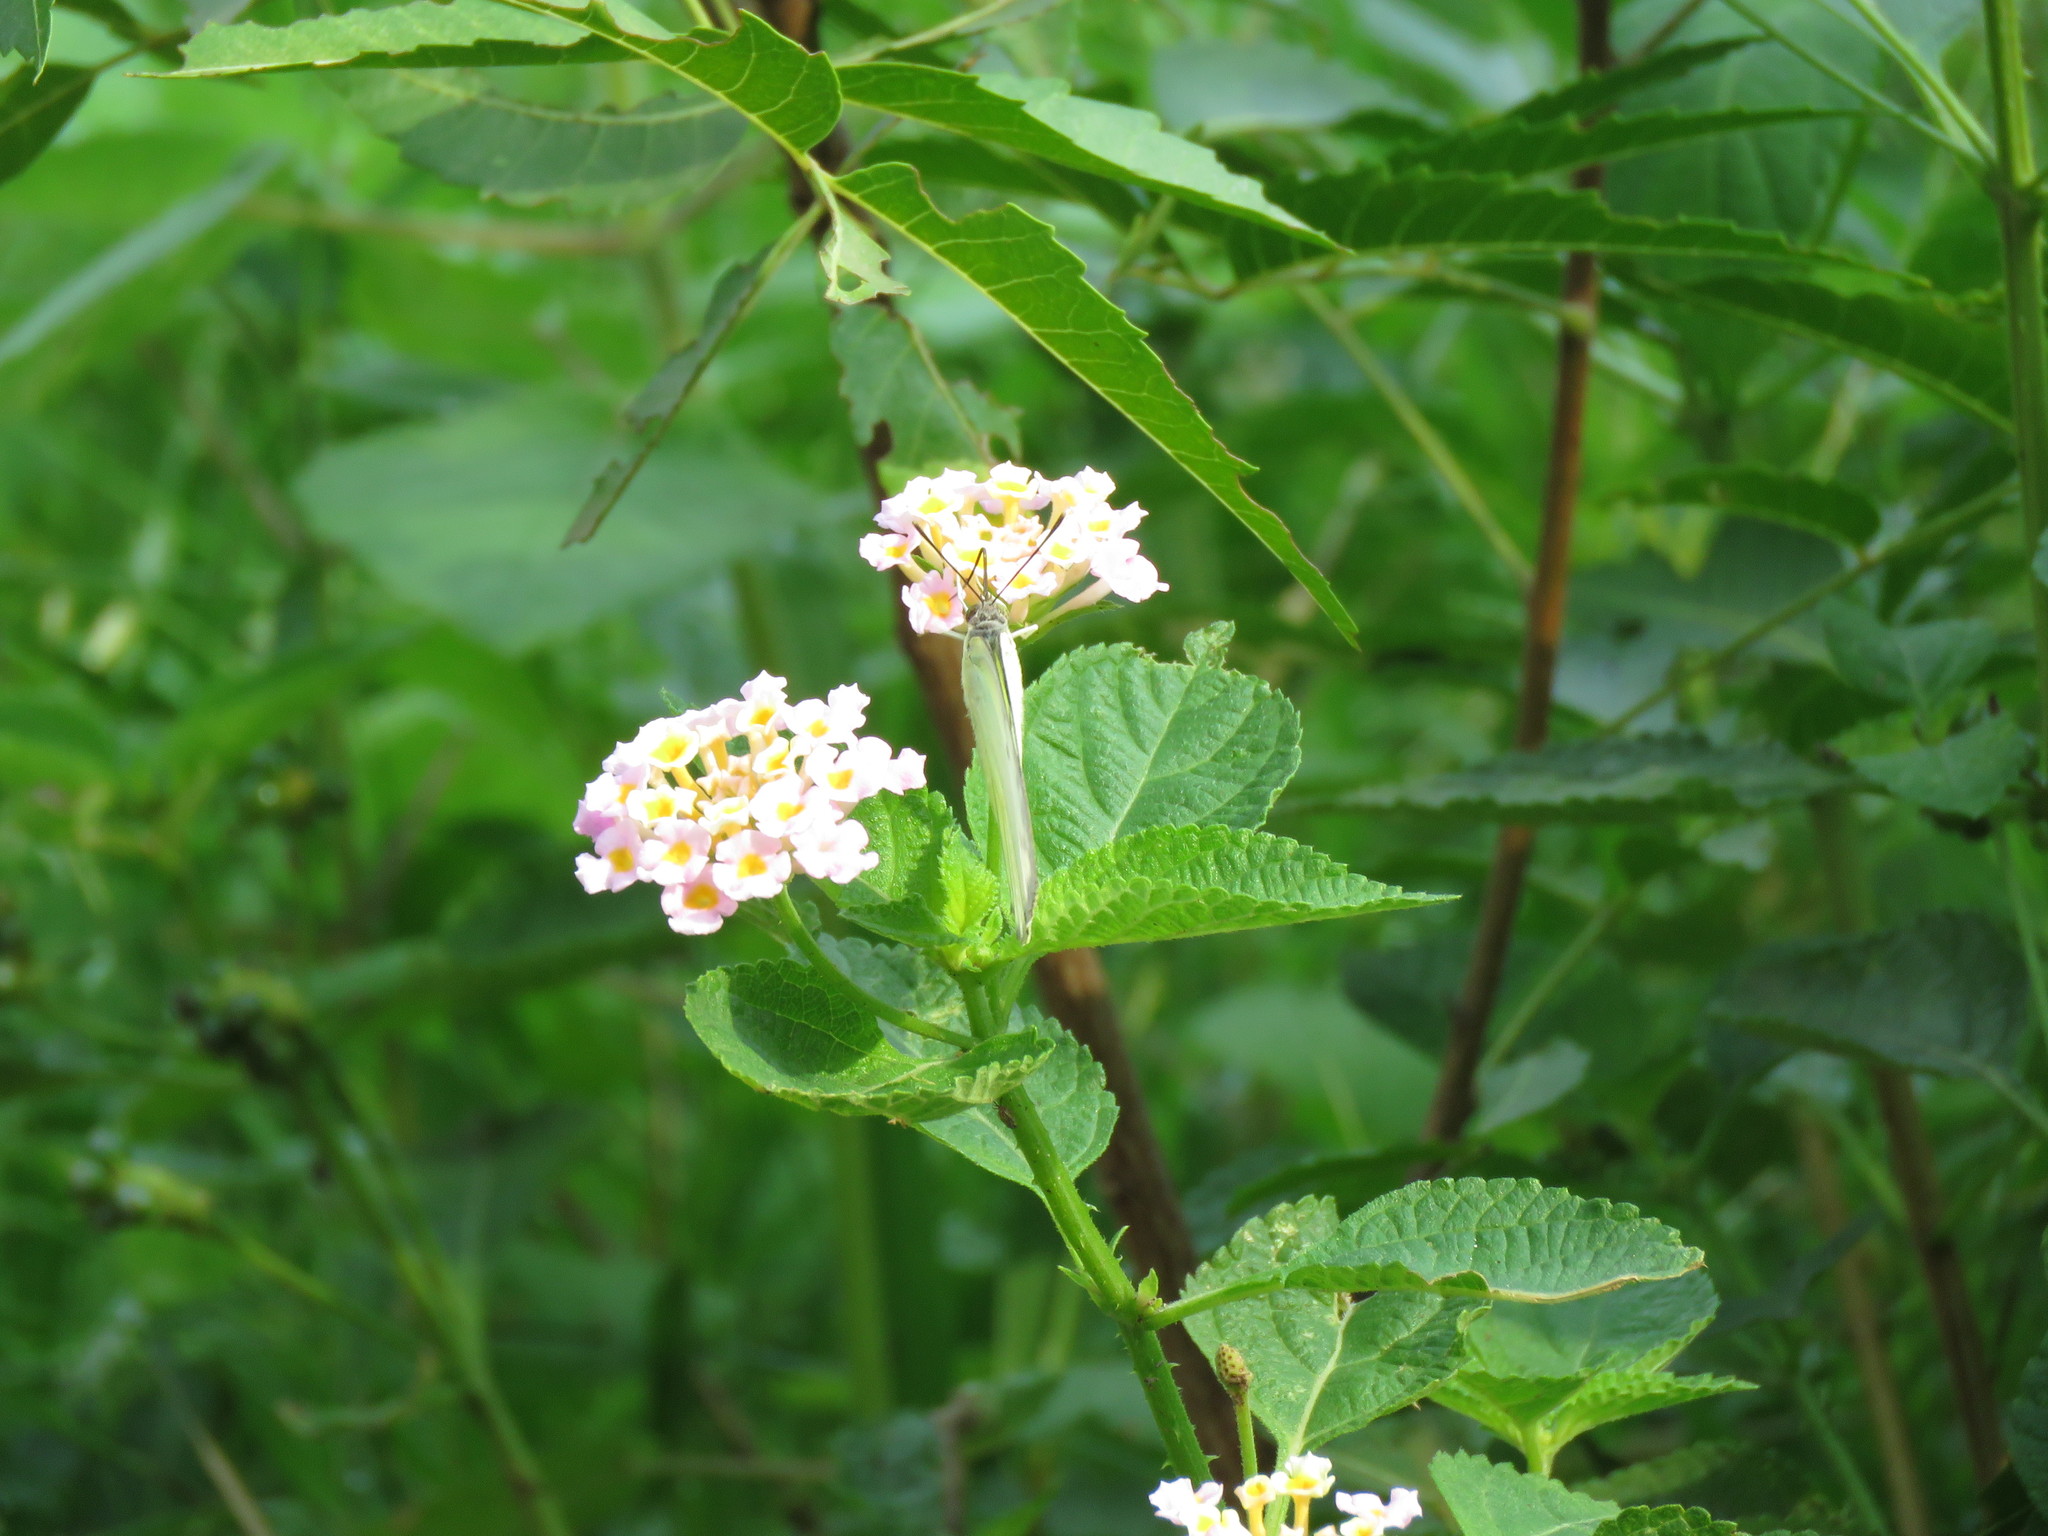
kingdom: Plantae
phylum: Tracheophyta
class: Magnoliopsida
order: Lamiales
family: Verbenaceae
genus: Lantana
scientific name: Lantana camara
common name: Lantana
